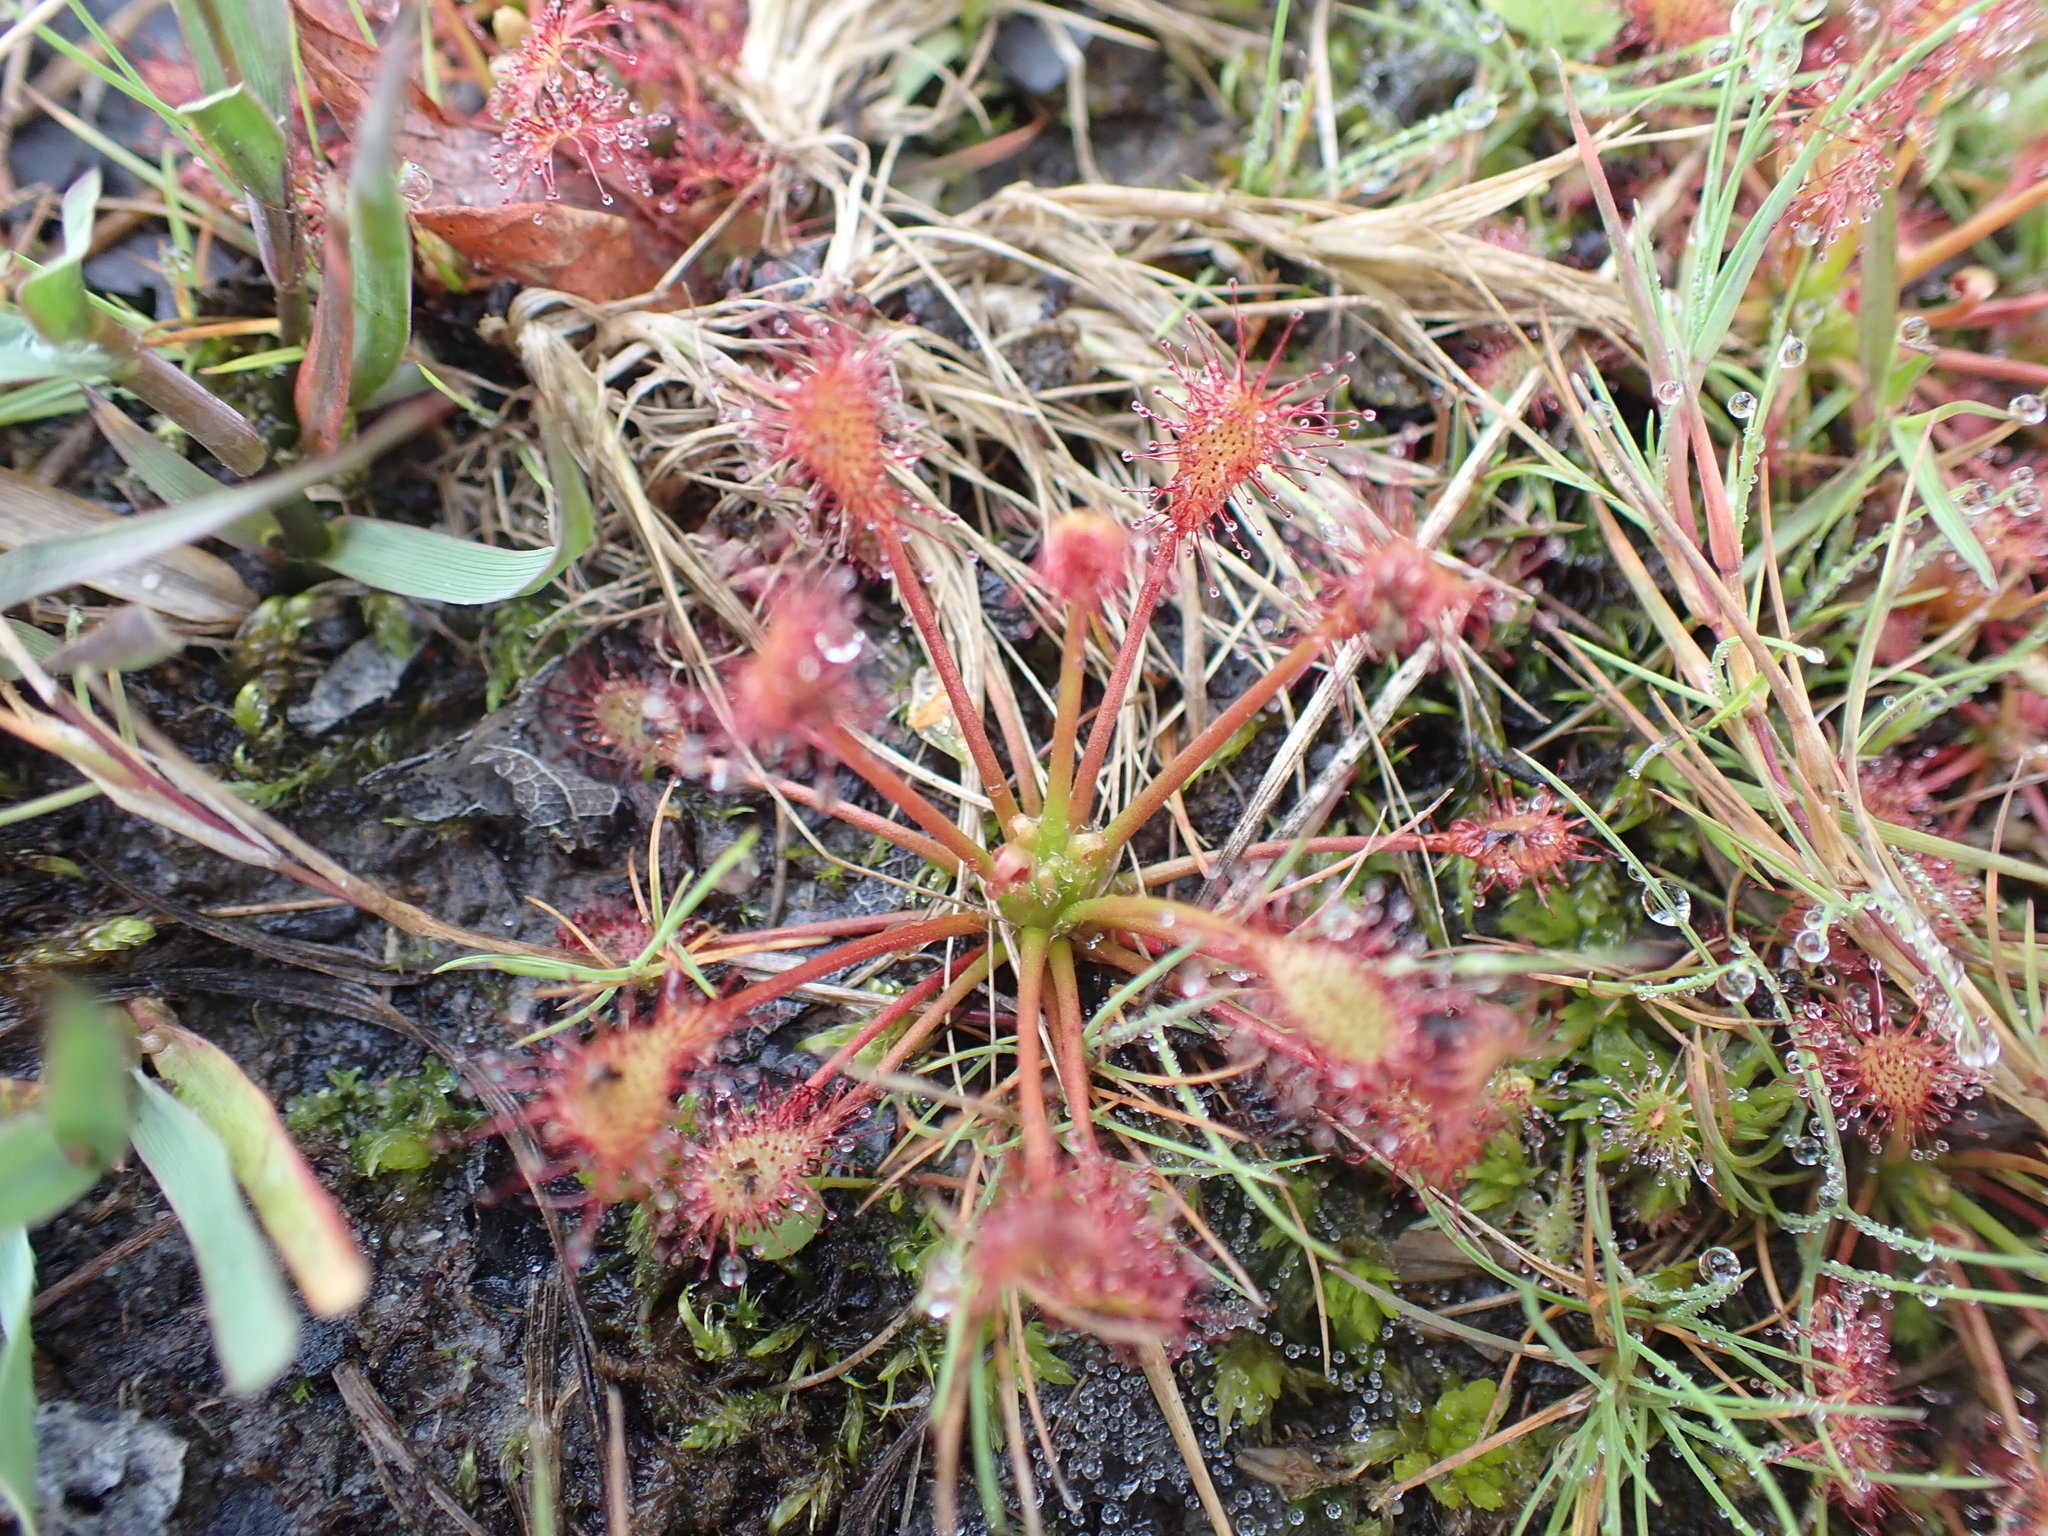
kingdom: Plantae
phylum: Tracheophyta
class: Magnoliopsida
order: Caryophyllales
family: Droseraceae
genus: Drosera
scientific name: Drosera intermedia
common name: Oblong-leaved sundew
